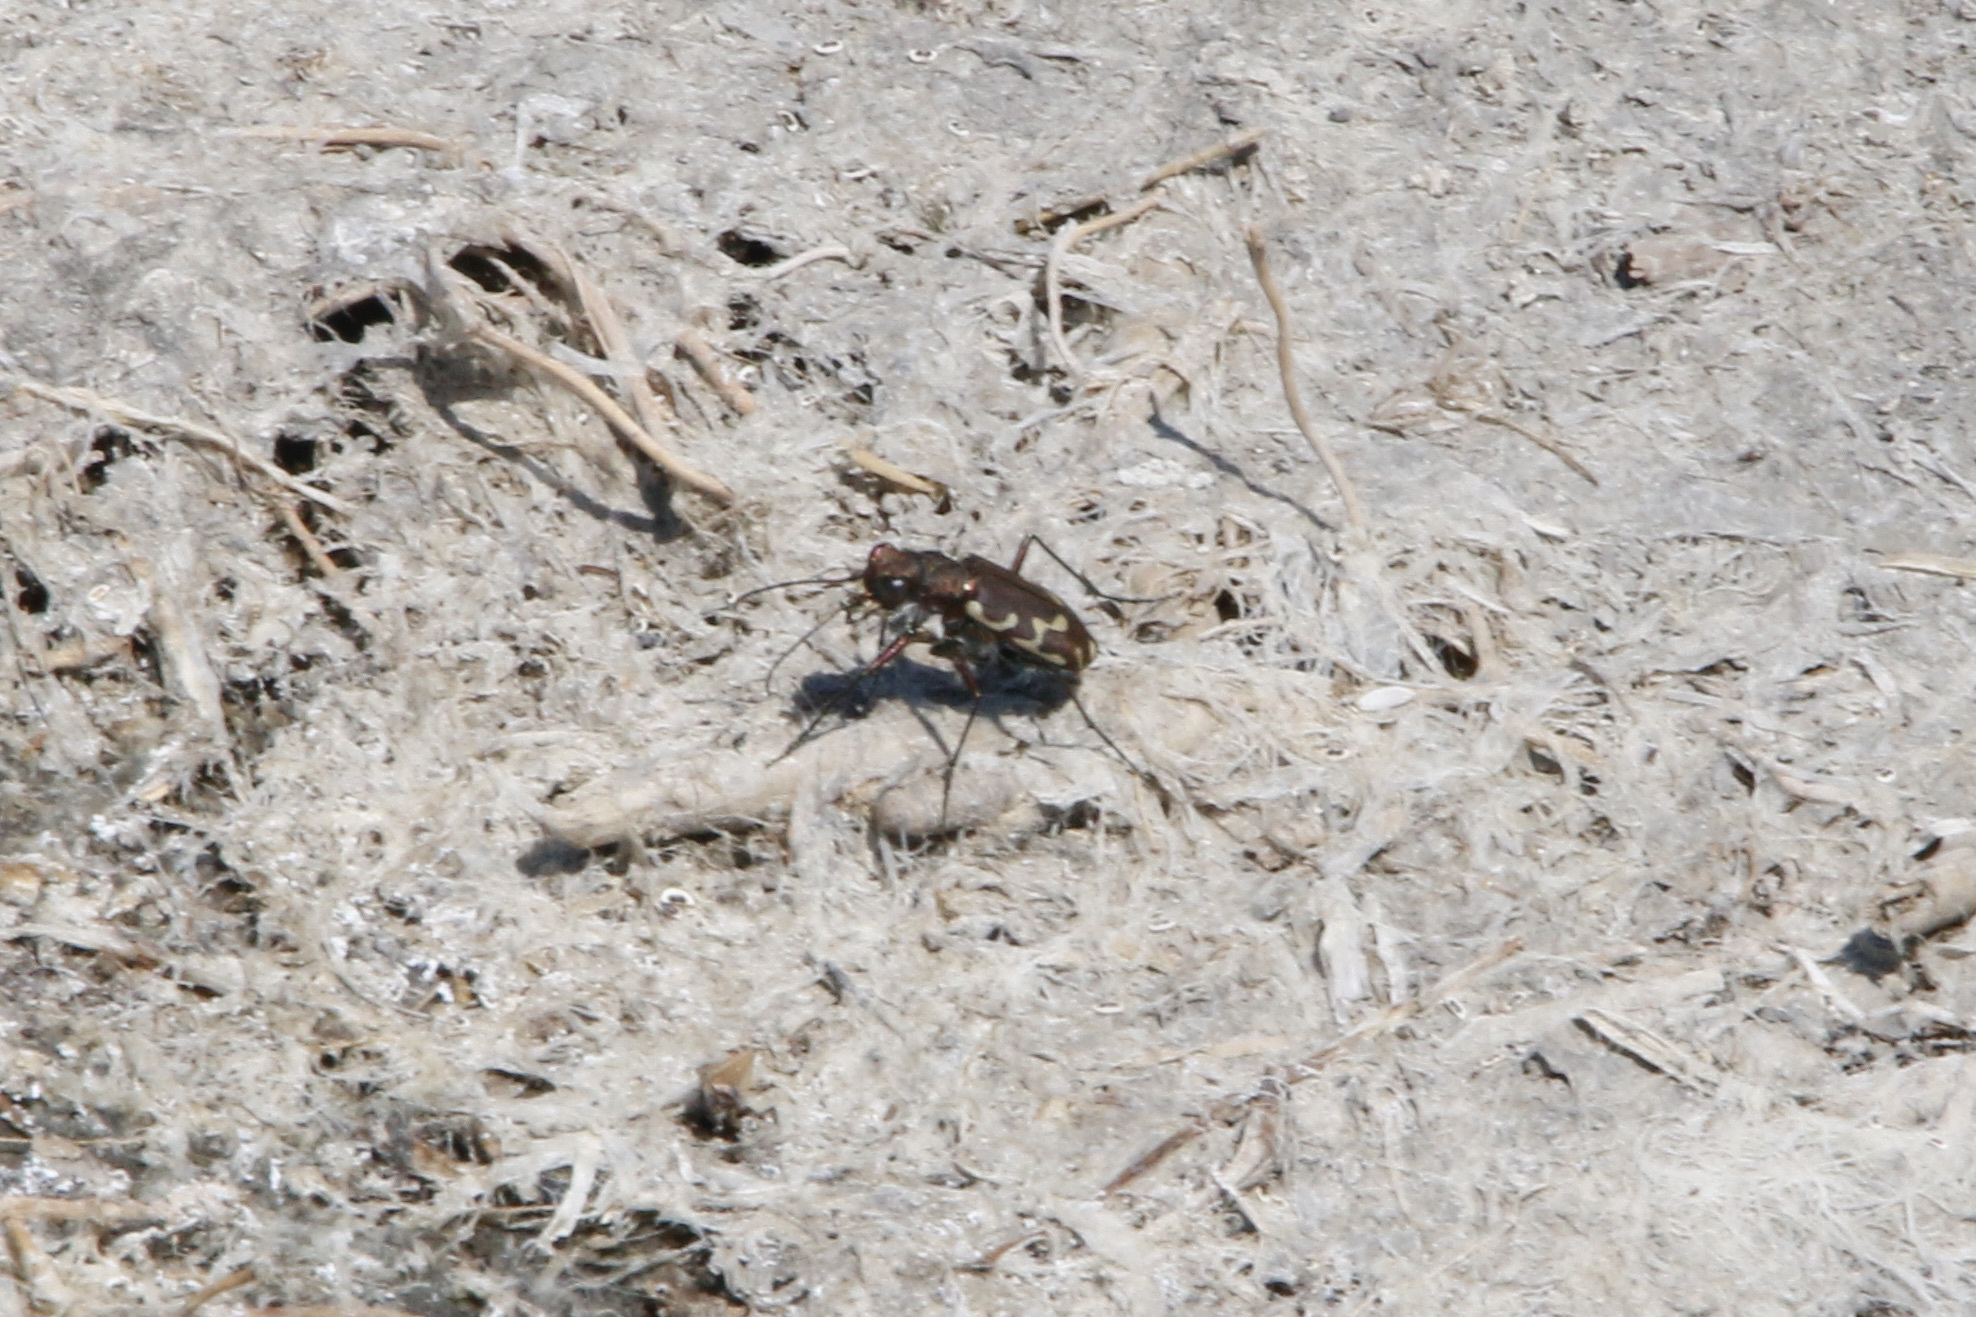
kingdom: Animalia
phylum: Arthropoda
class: Insecta
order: Coleoptera
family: Carabidae
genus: Cicindela
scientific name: Cicindela repanda
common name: Bronzed tiger beetle
